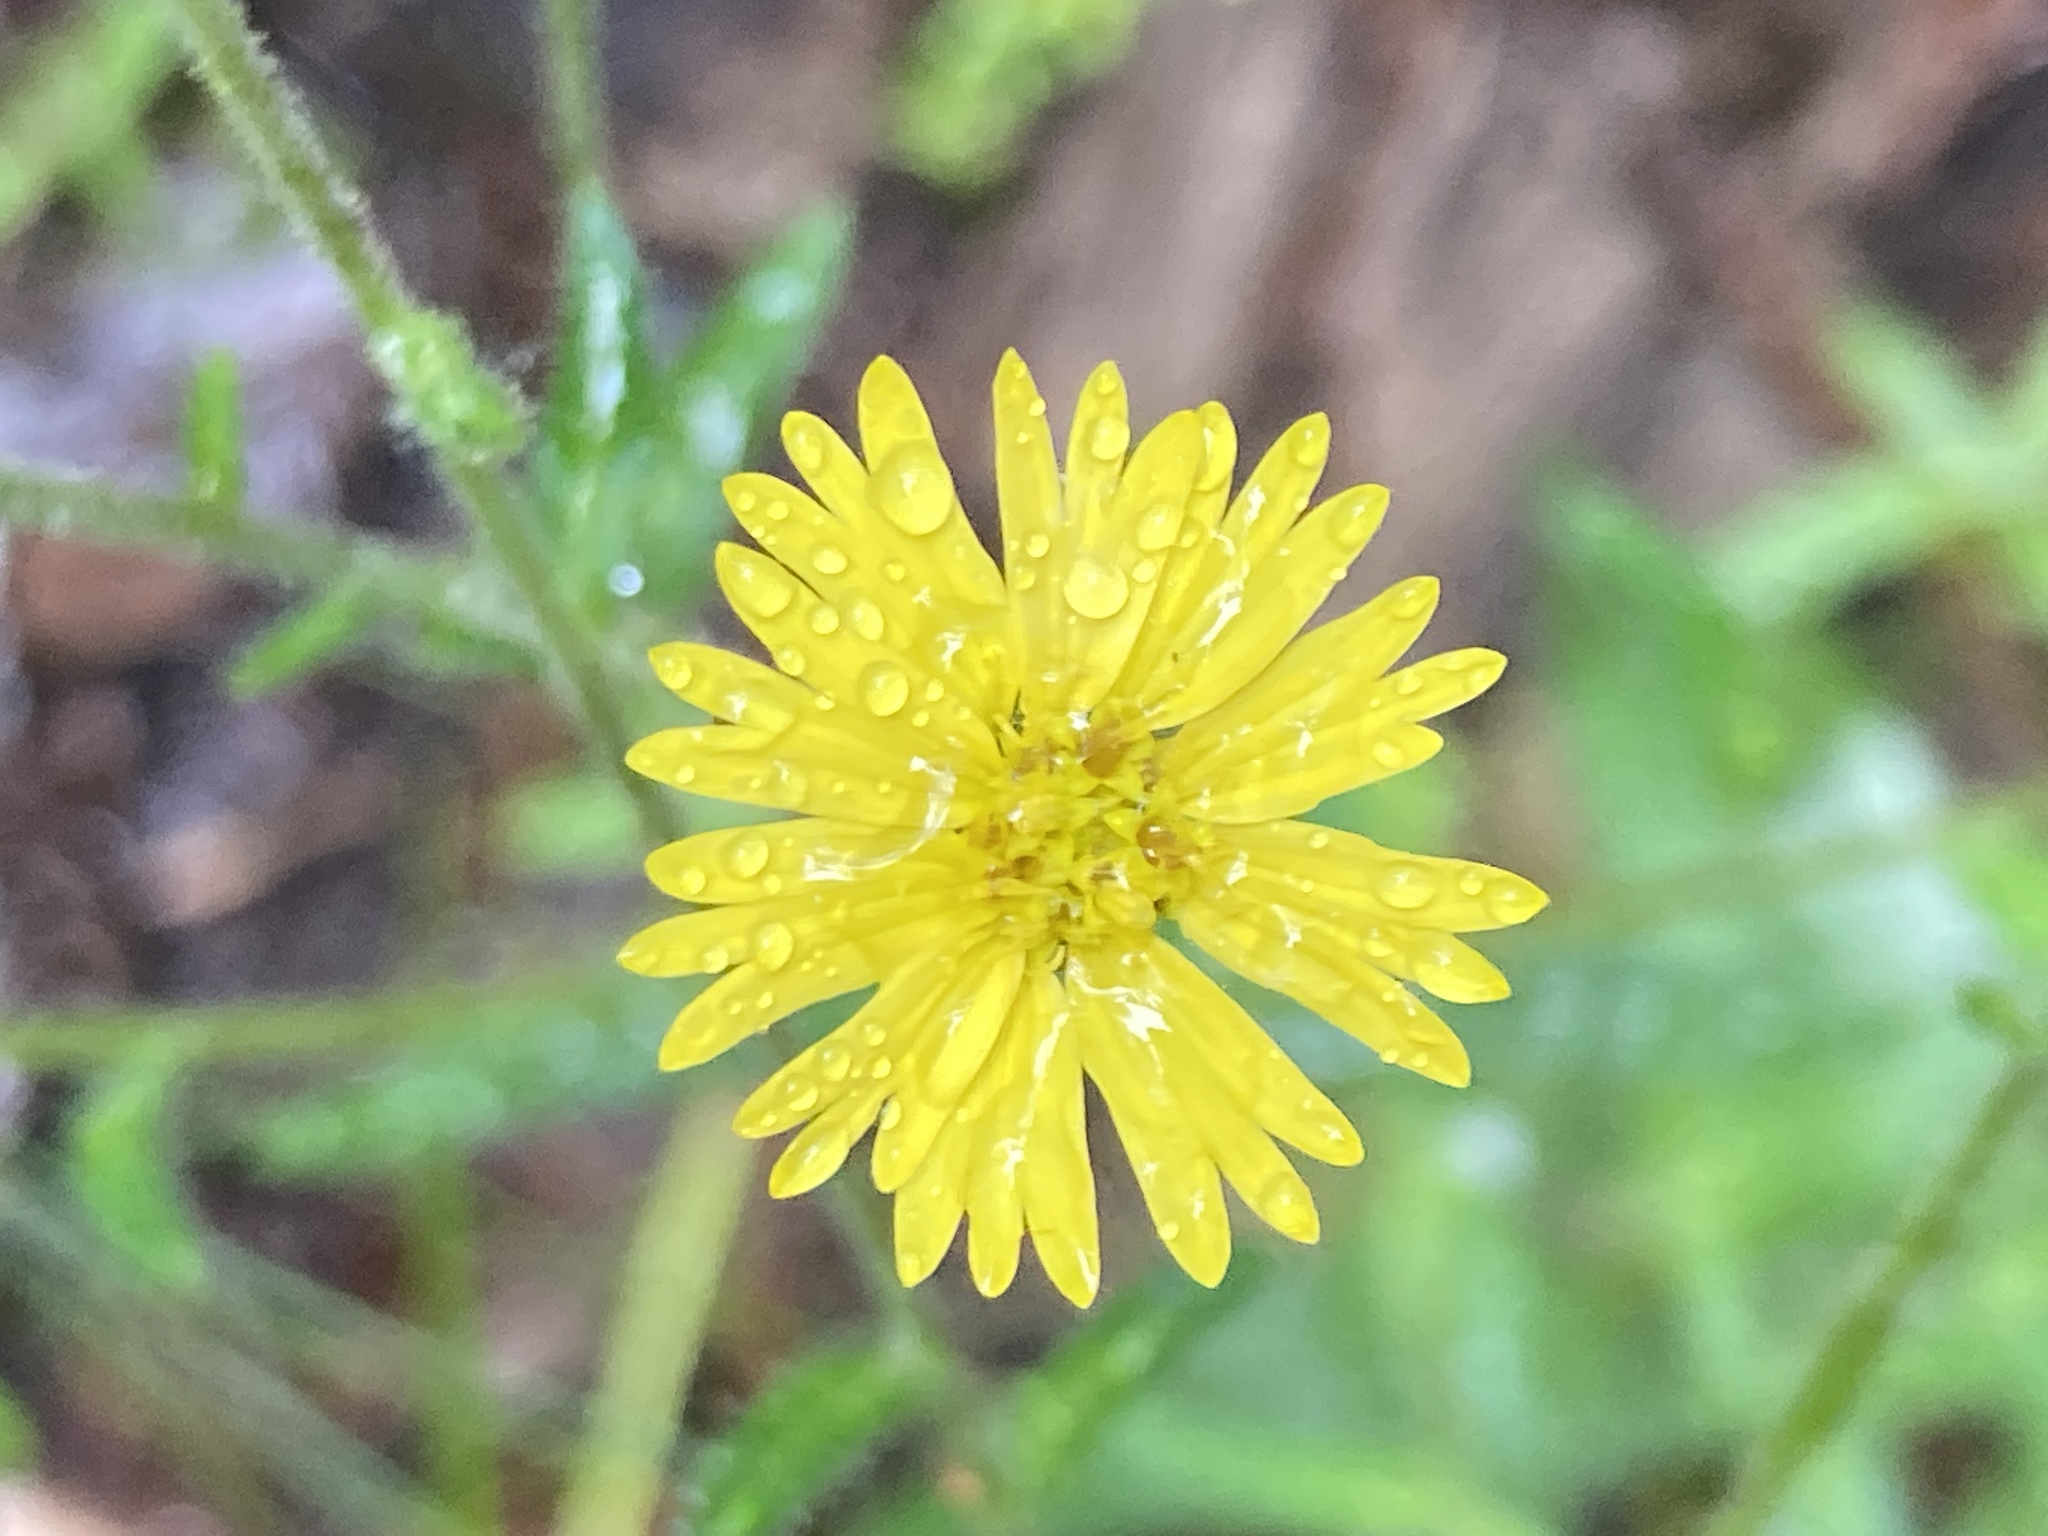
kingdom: Plantae
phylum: Tracheophyta
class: Magnoliopsida
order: Asterales
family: Asteraceae
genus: Anisocarpus
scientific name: Anisocarpus madioides
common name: Woodland madia
